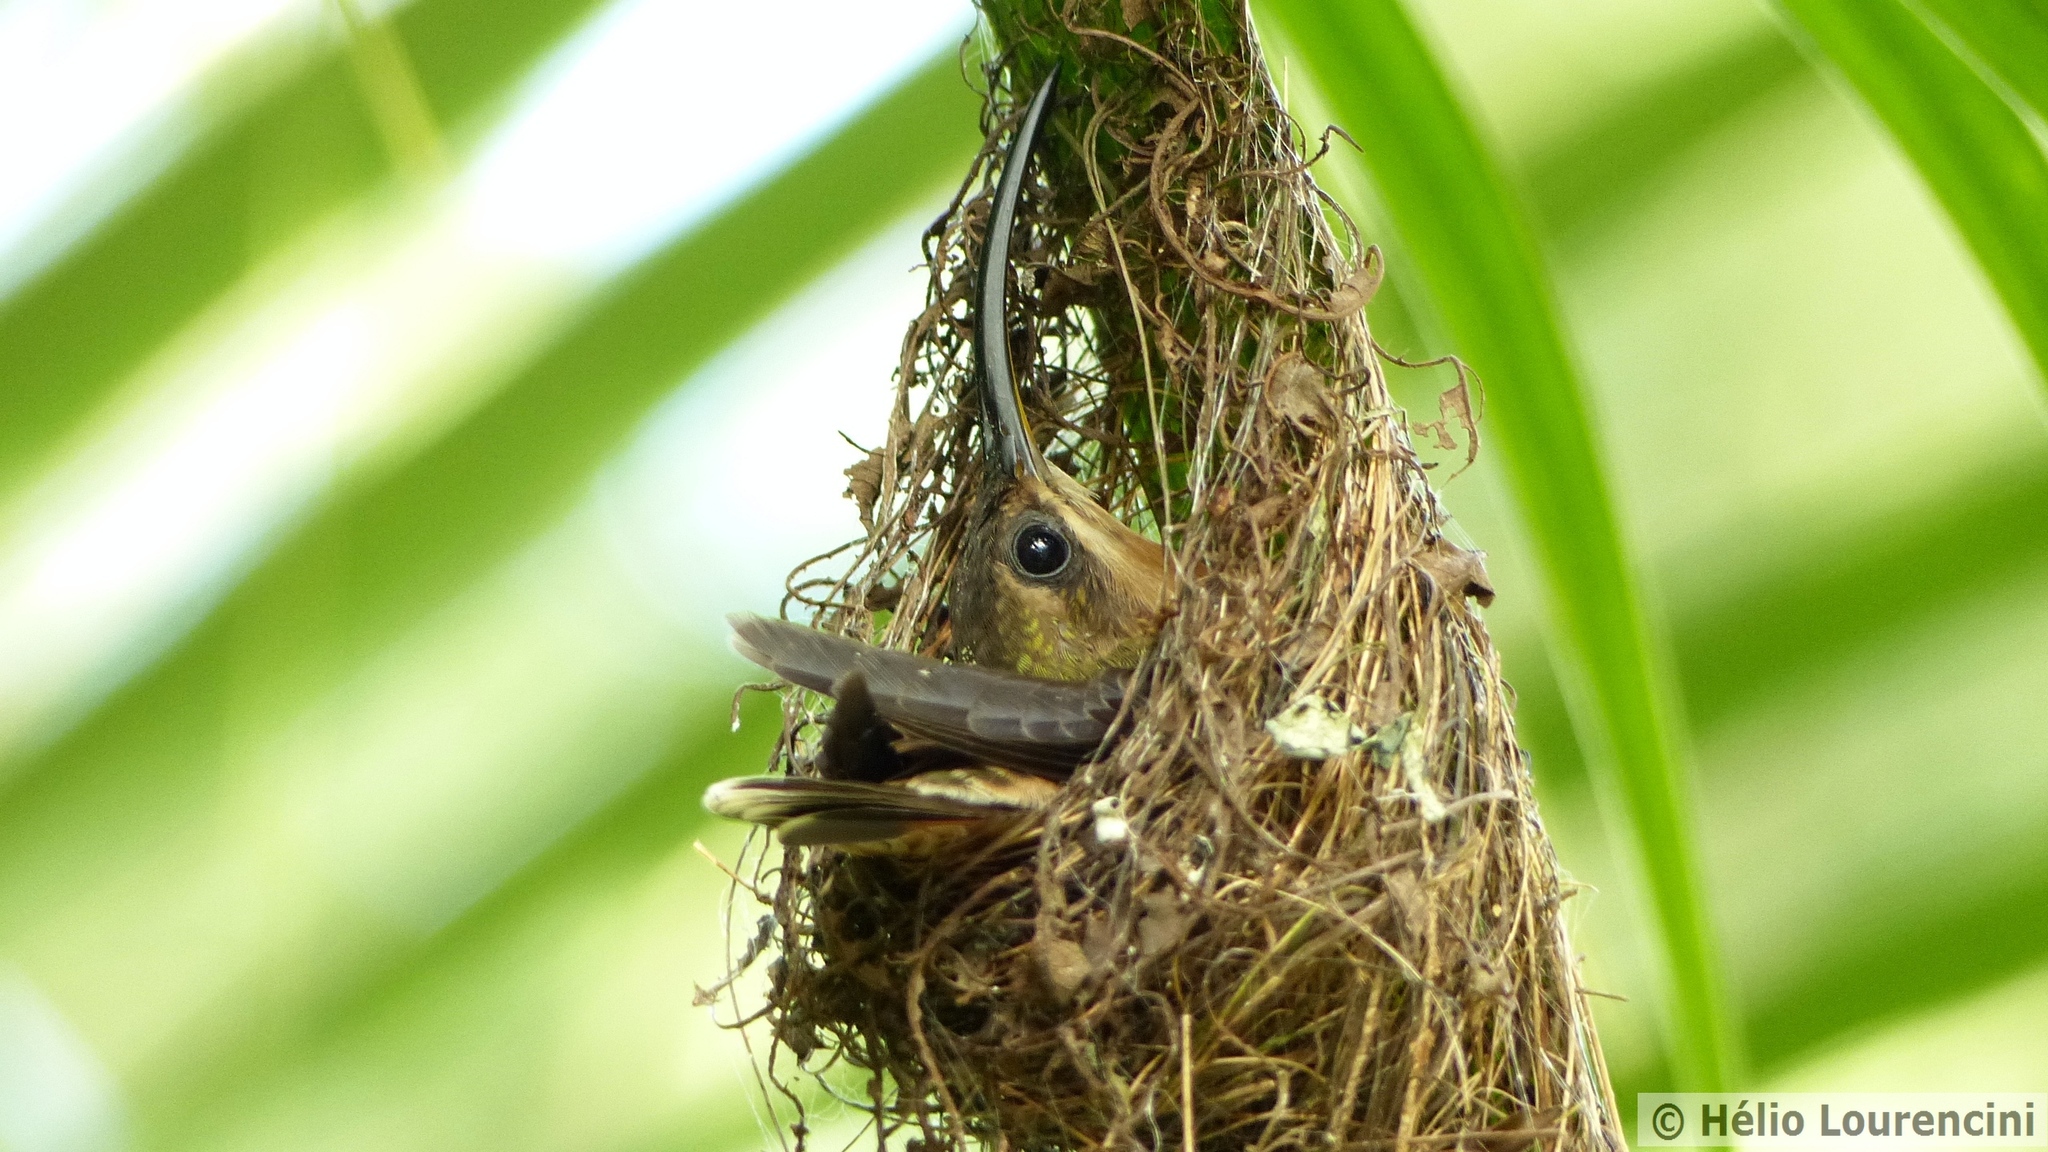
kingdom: Animalia
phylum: Chordata
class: Aves
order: Apodiformes
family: Trochilidae
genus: Glaucis
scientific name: Glaucis hirsutus
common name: Rufous-breasted hermit
